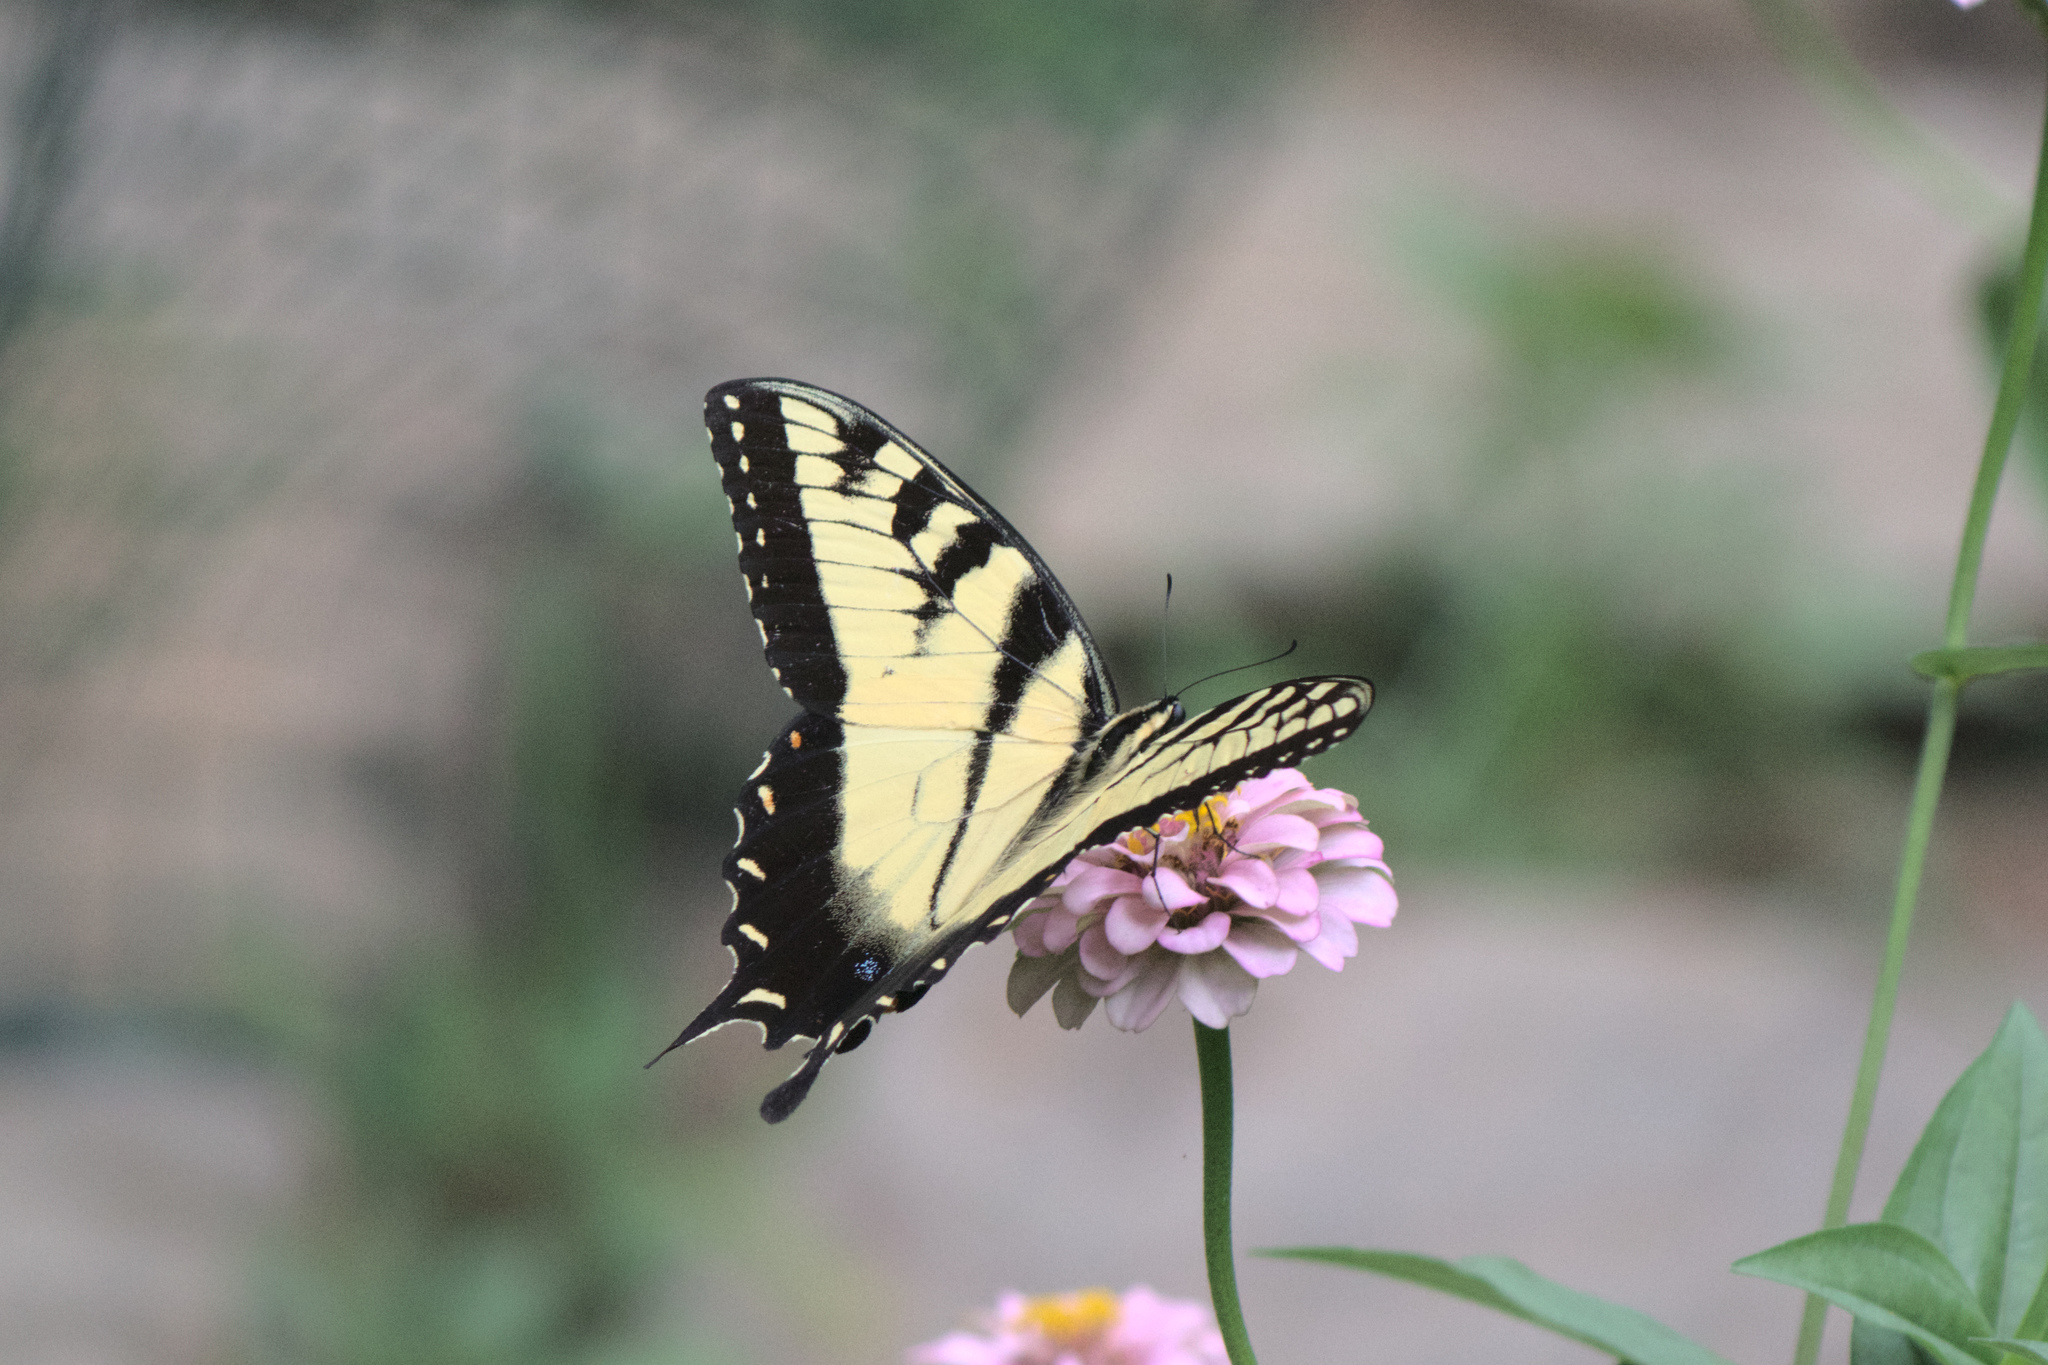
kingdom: Animalia
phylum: Arthropoda
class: Insecta
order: Lepidoptera
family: Papilionidae
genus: Papilio
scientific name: Papilio glaucus
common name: Tiger swallowtail
